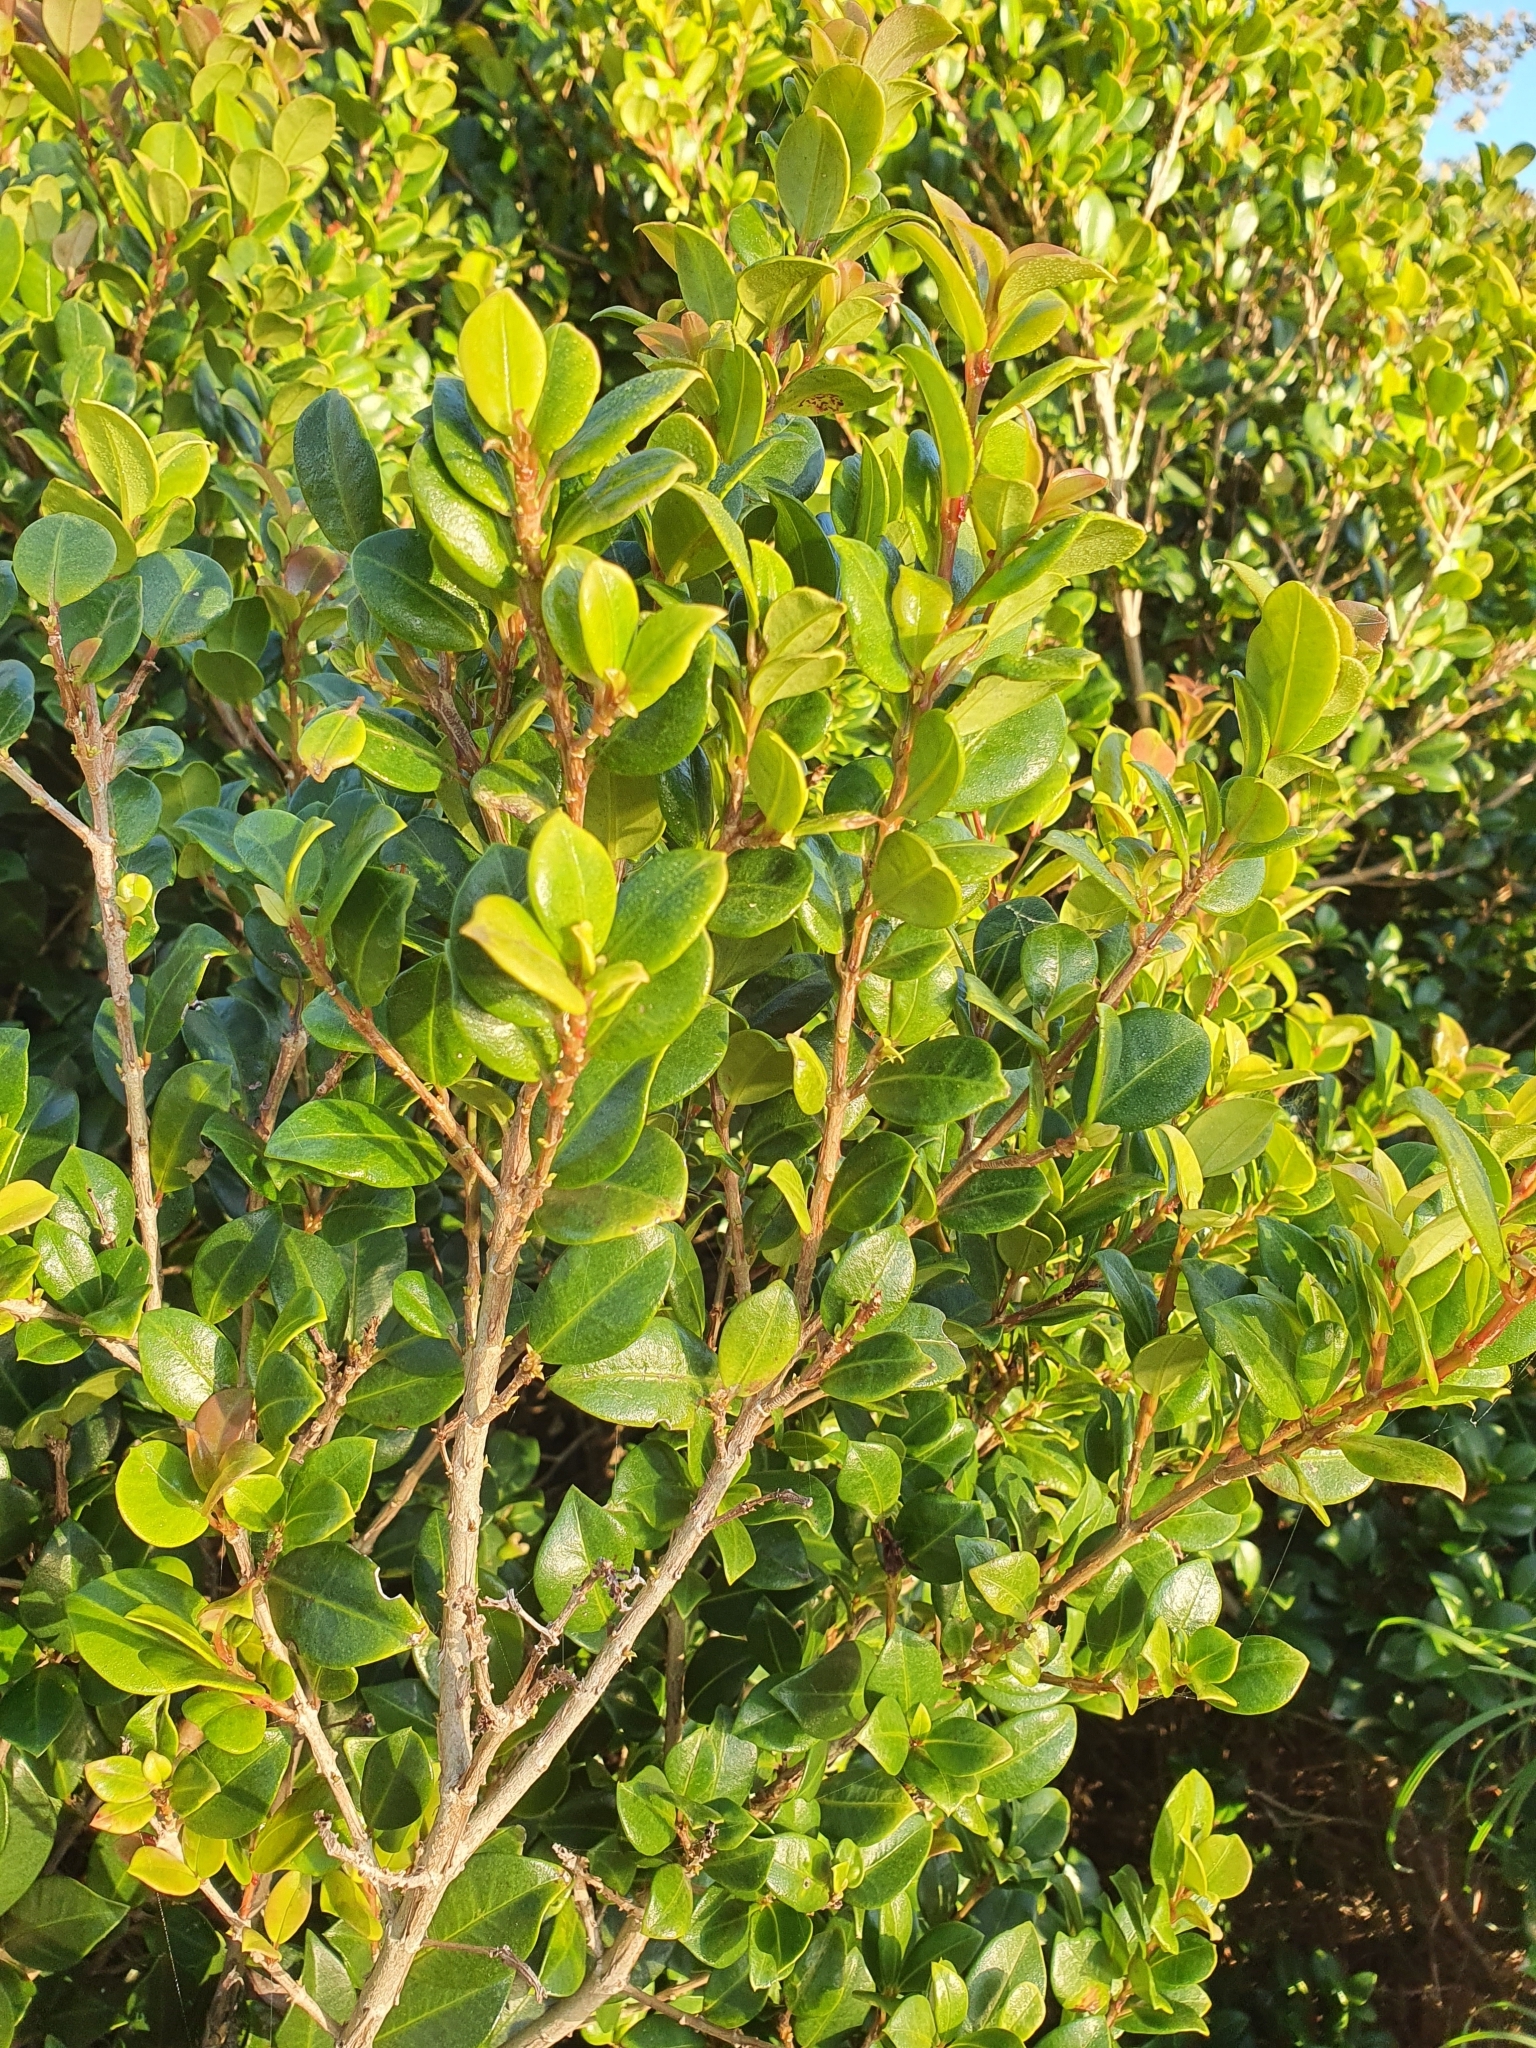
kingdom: Plantae
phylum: Tracheophyta
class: Magnoliopsida
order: Myrtales
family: Myrtaceae
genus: Syzygium
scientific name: Syzygium australe
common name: Australian brush-cherry
